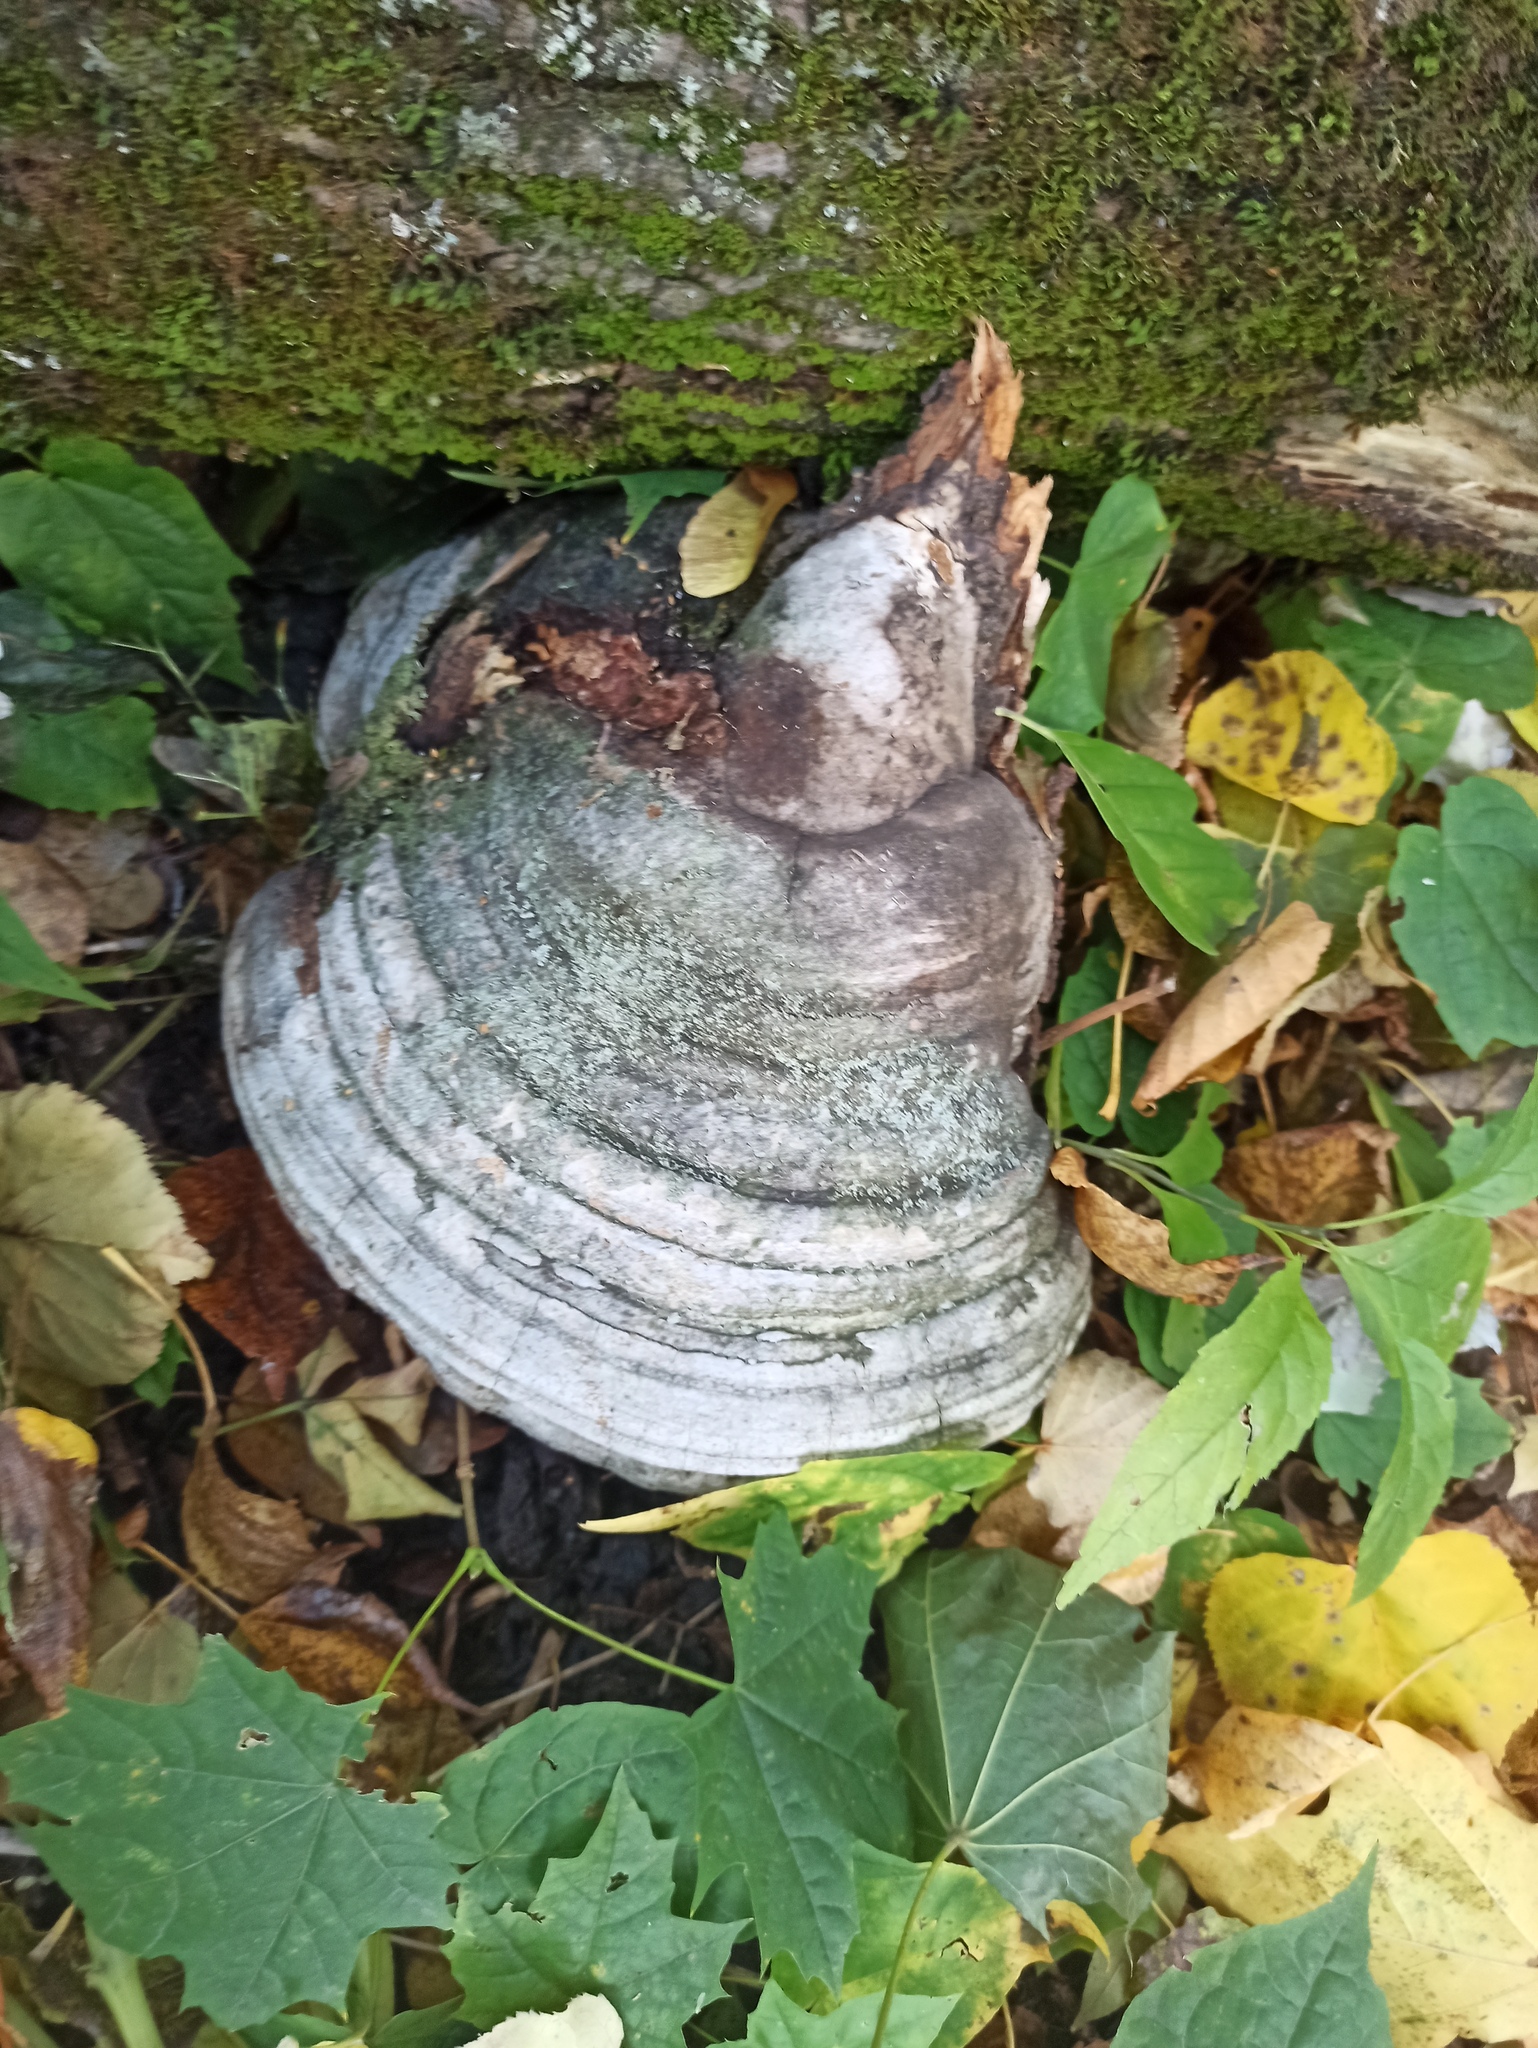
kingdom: Fungi
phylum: Basidiomycota
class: Agaricomycetes
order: Polyporales
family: Polyporaceae
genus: Fomes
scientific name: Fomes fomentarius
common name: Hoof fungus
